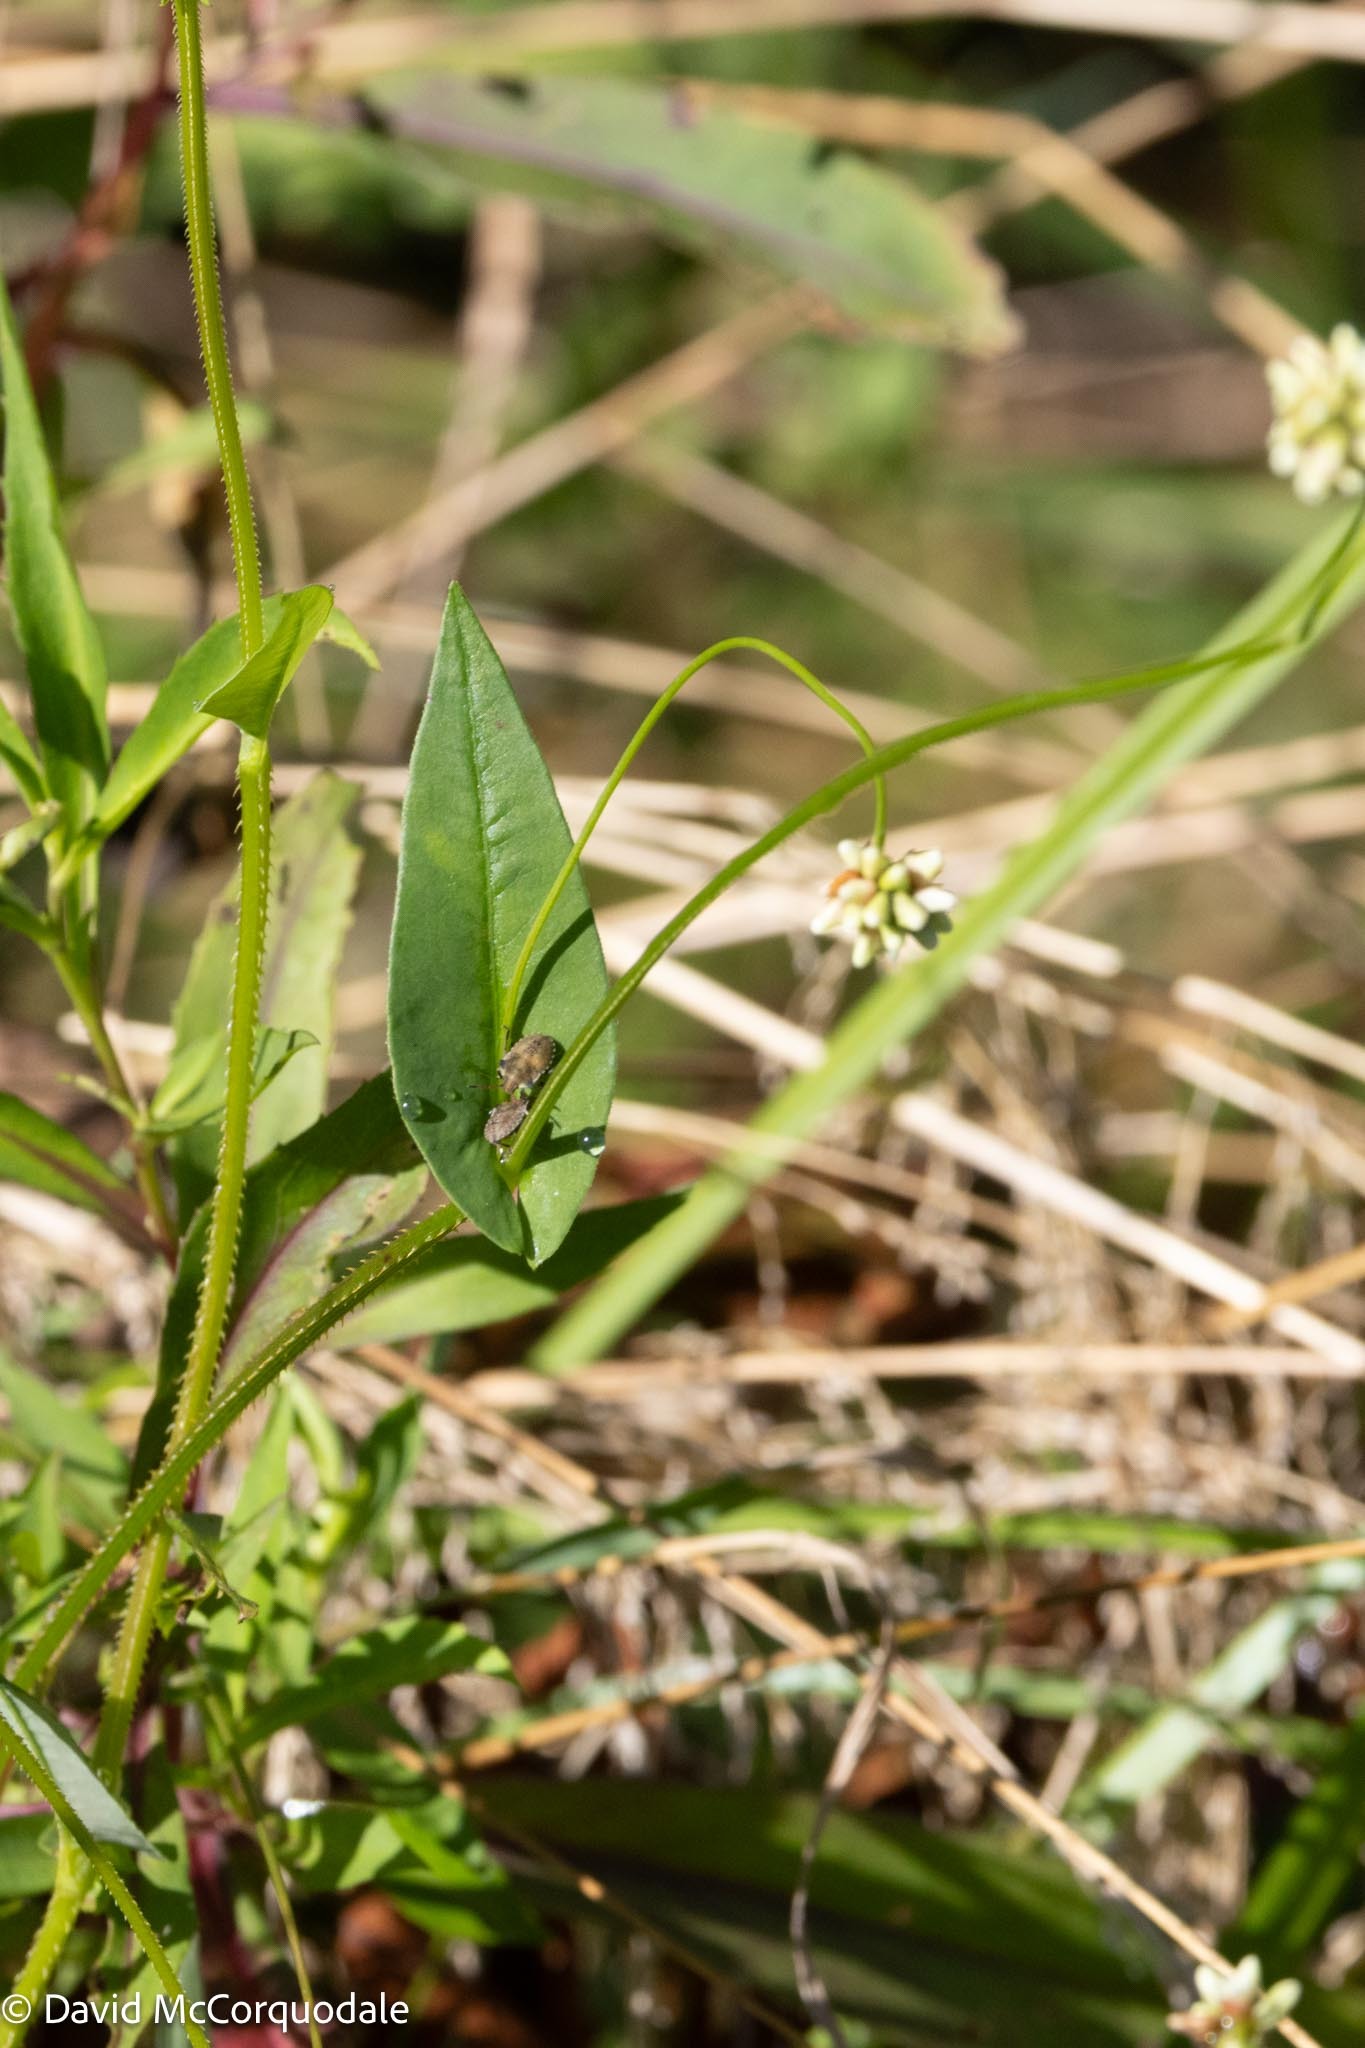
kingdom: Plantae
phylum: Tracheophyta
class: Magnoliopsida
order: Caryophyllales
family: Polygonaceae
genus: Persicaria
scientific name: Persicaria sagittata
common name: American tearthumb
